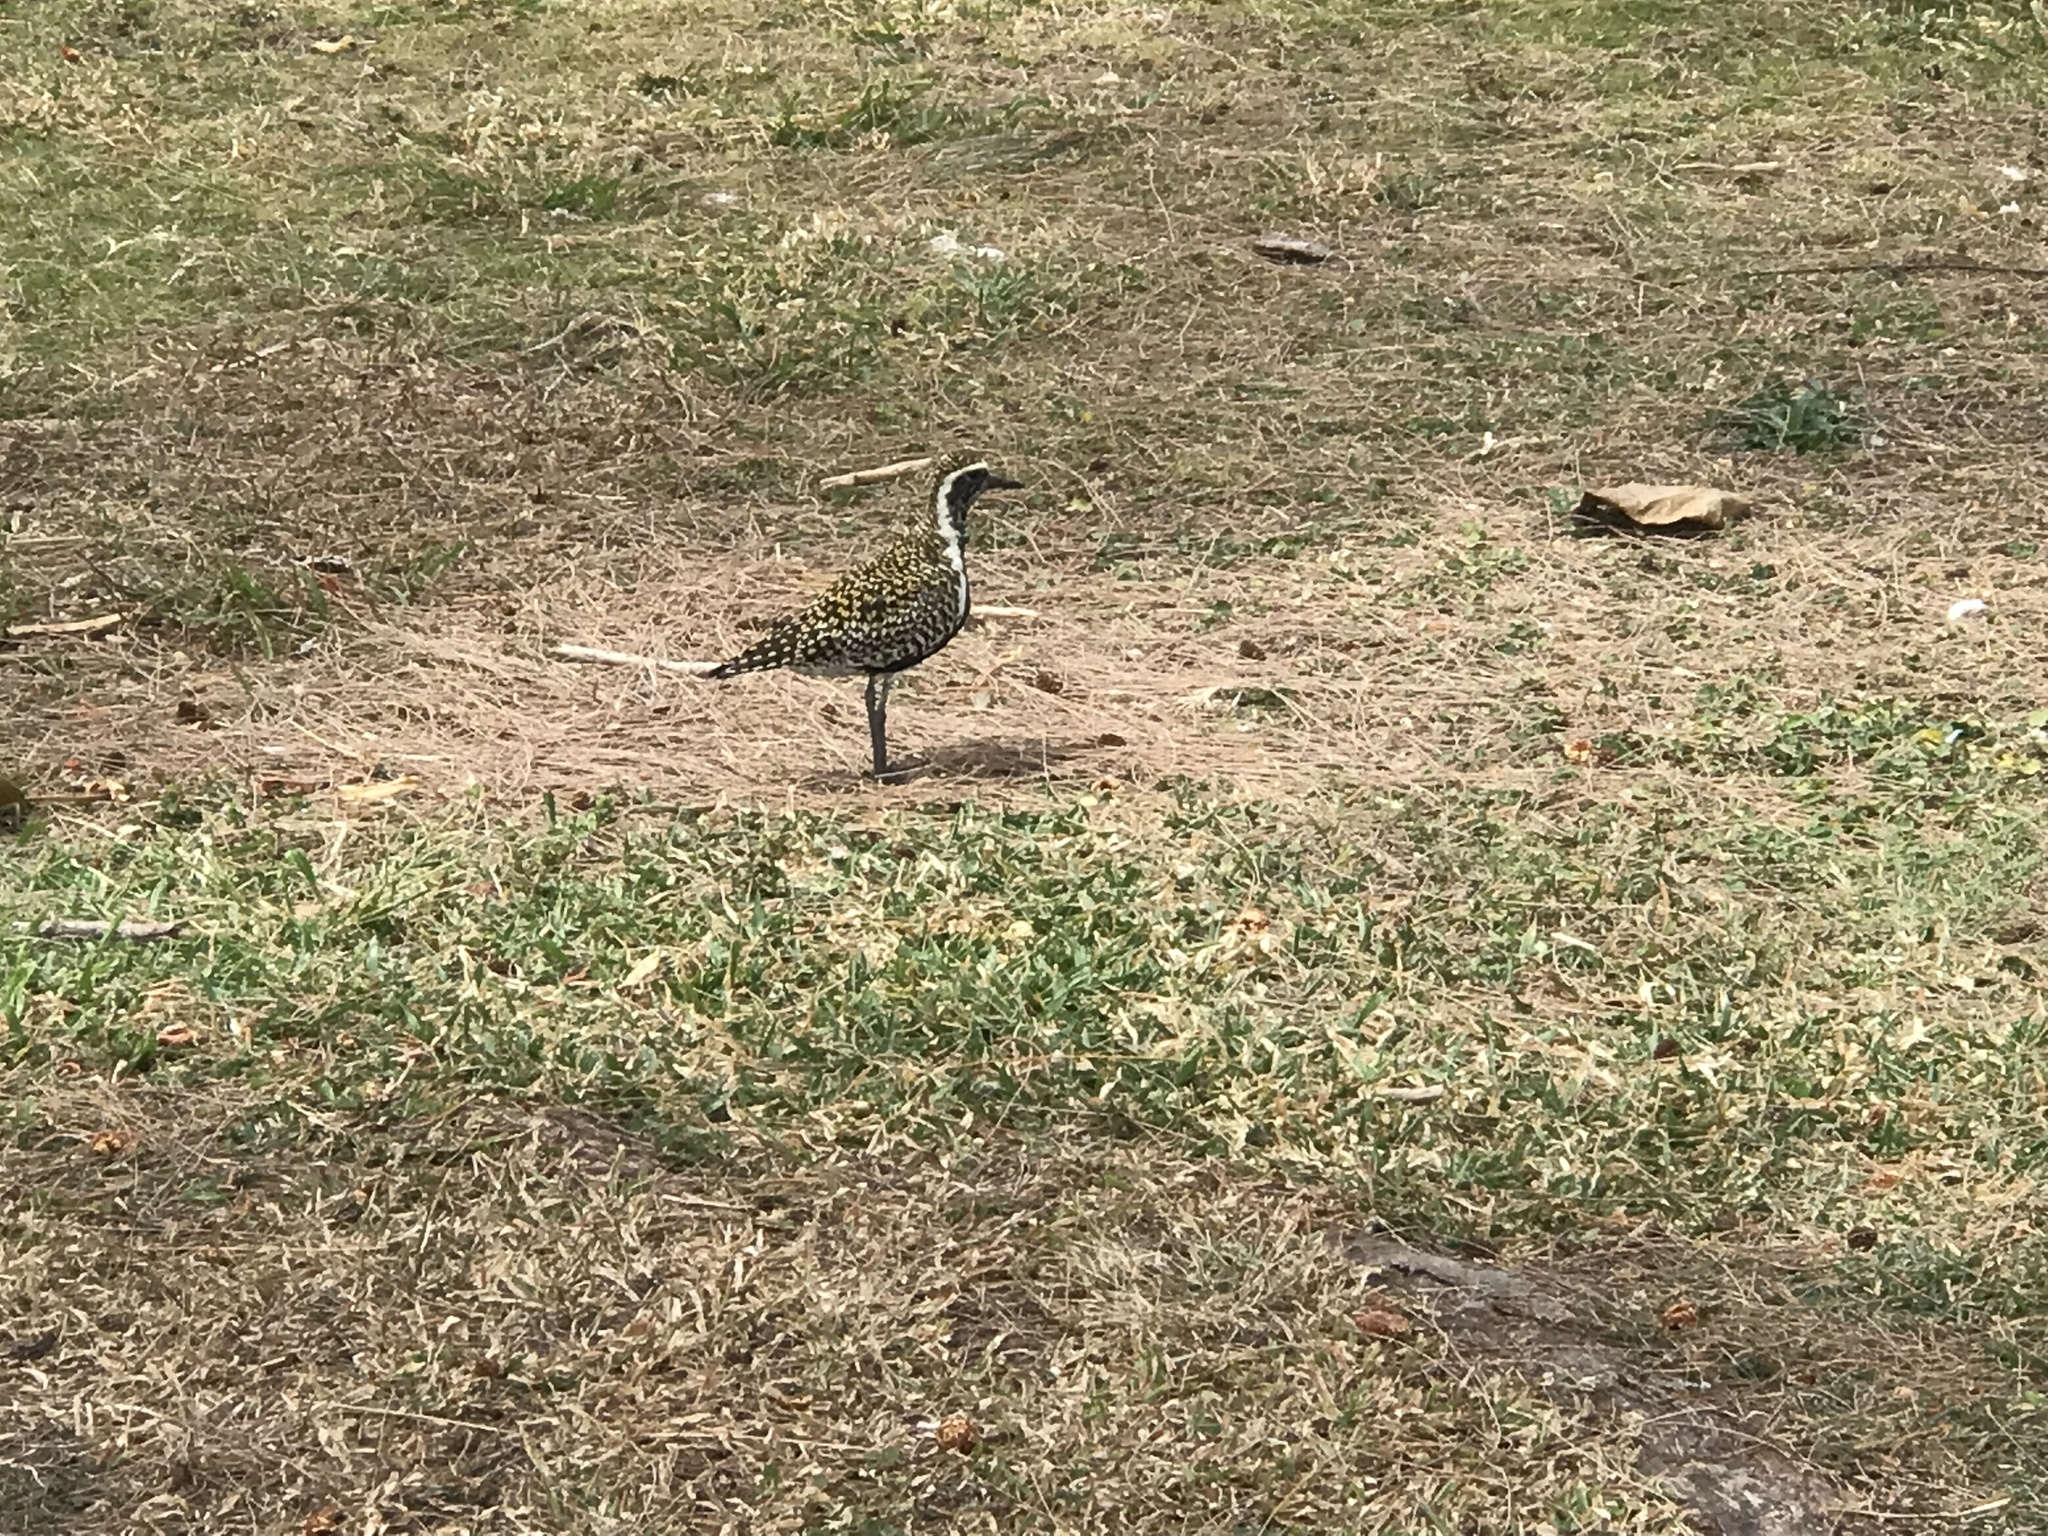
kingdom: Animalia
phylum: Chordata
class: Aves
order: Charadriiformes
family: Charadriidae
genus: Pluvialis
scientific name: Pluvialis fulva
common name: Pacific golden plover
